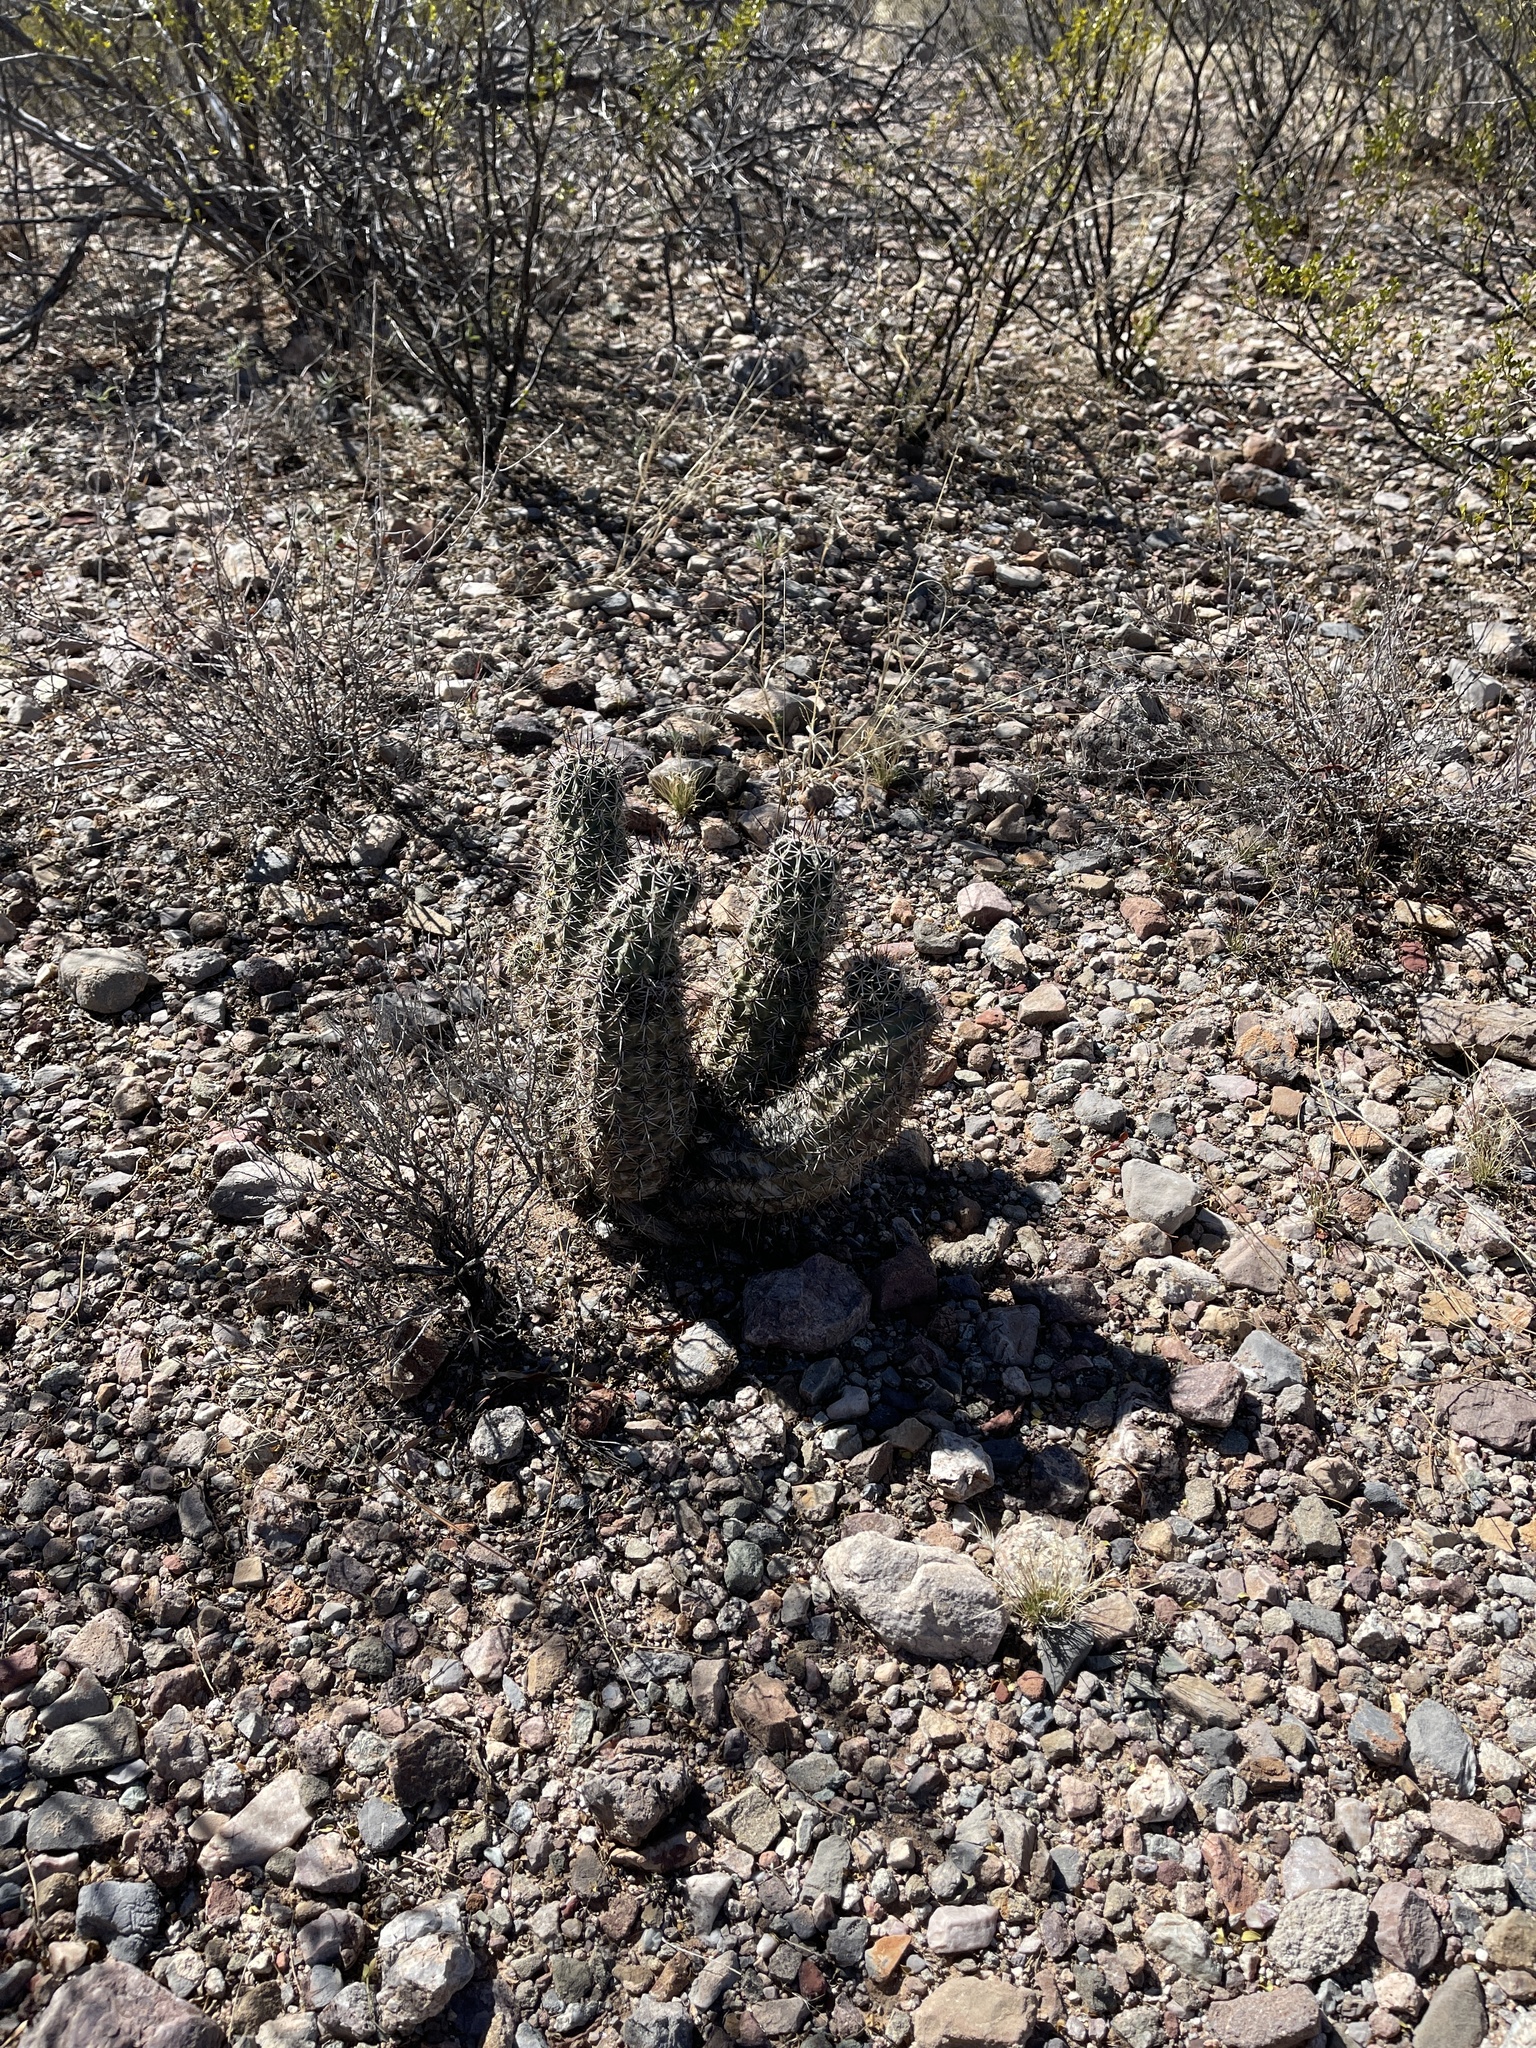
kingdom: Plantae
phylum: Tracheophyta
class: Magnoliopsida
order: Caryophyllales
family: Cactaceae
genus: Echinocereus
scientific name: Echinocereus fasciculatus
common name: Bundle hedgehog
